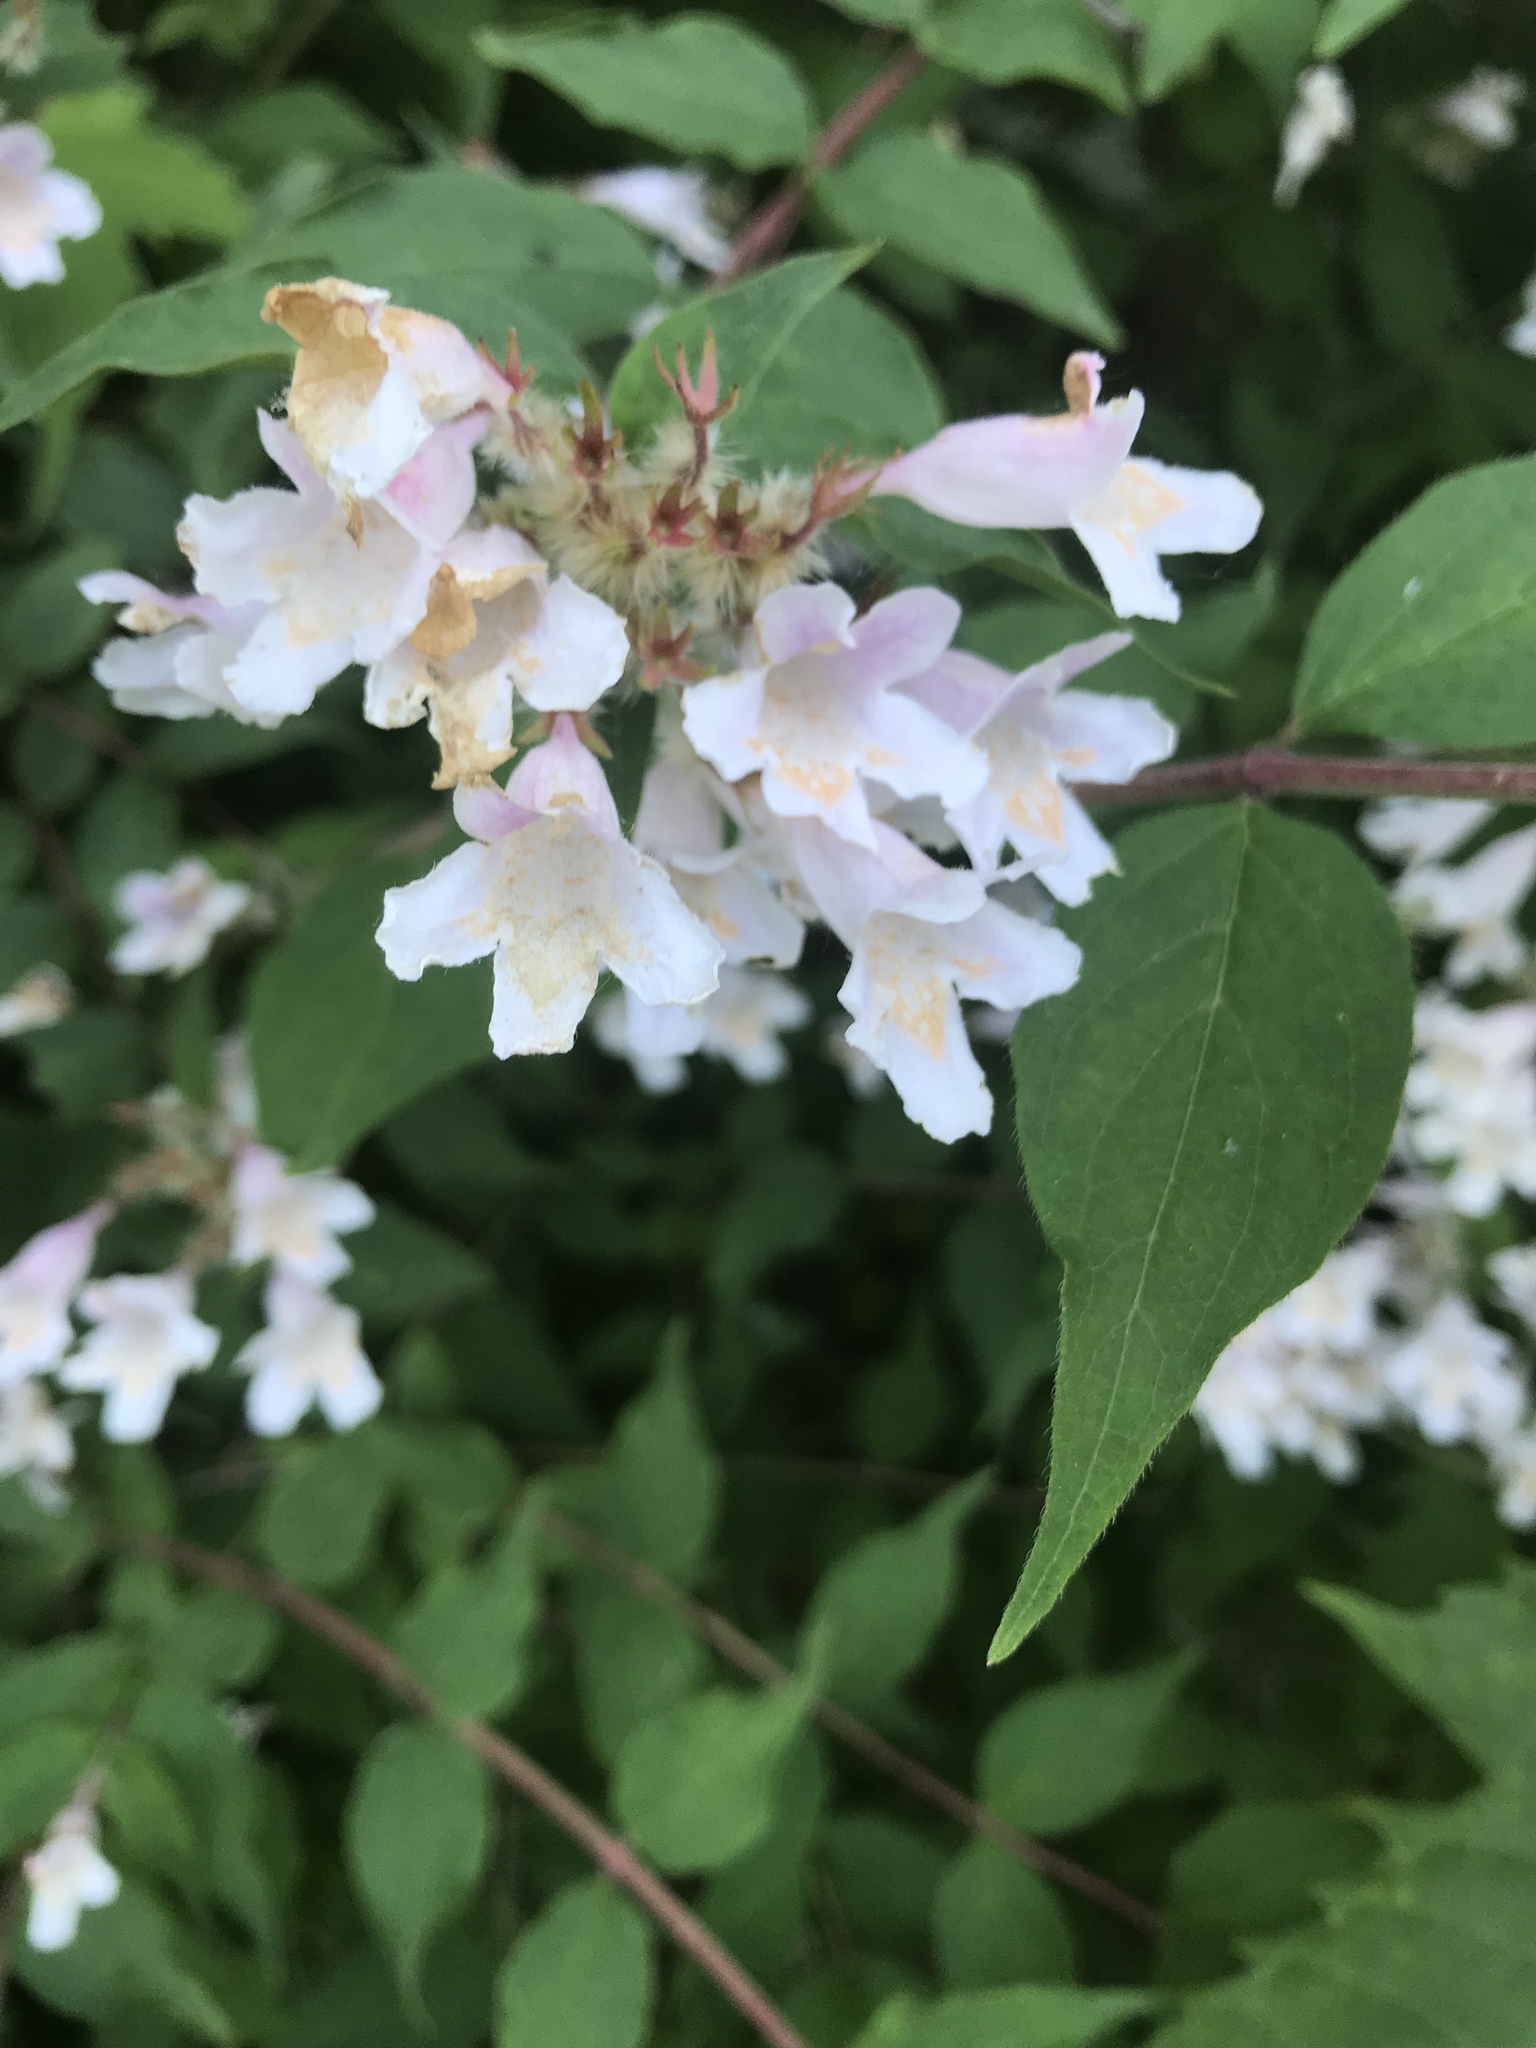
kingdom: Plantae
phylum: Tracheophyta
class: Magnoliopsida
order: Dipsacales
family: Caprifoliaceae
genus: Kolkwitzia
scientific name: Kolkwitzia amabilis
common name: Beautybush
